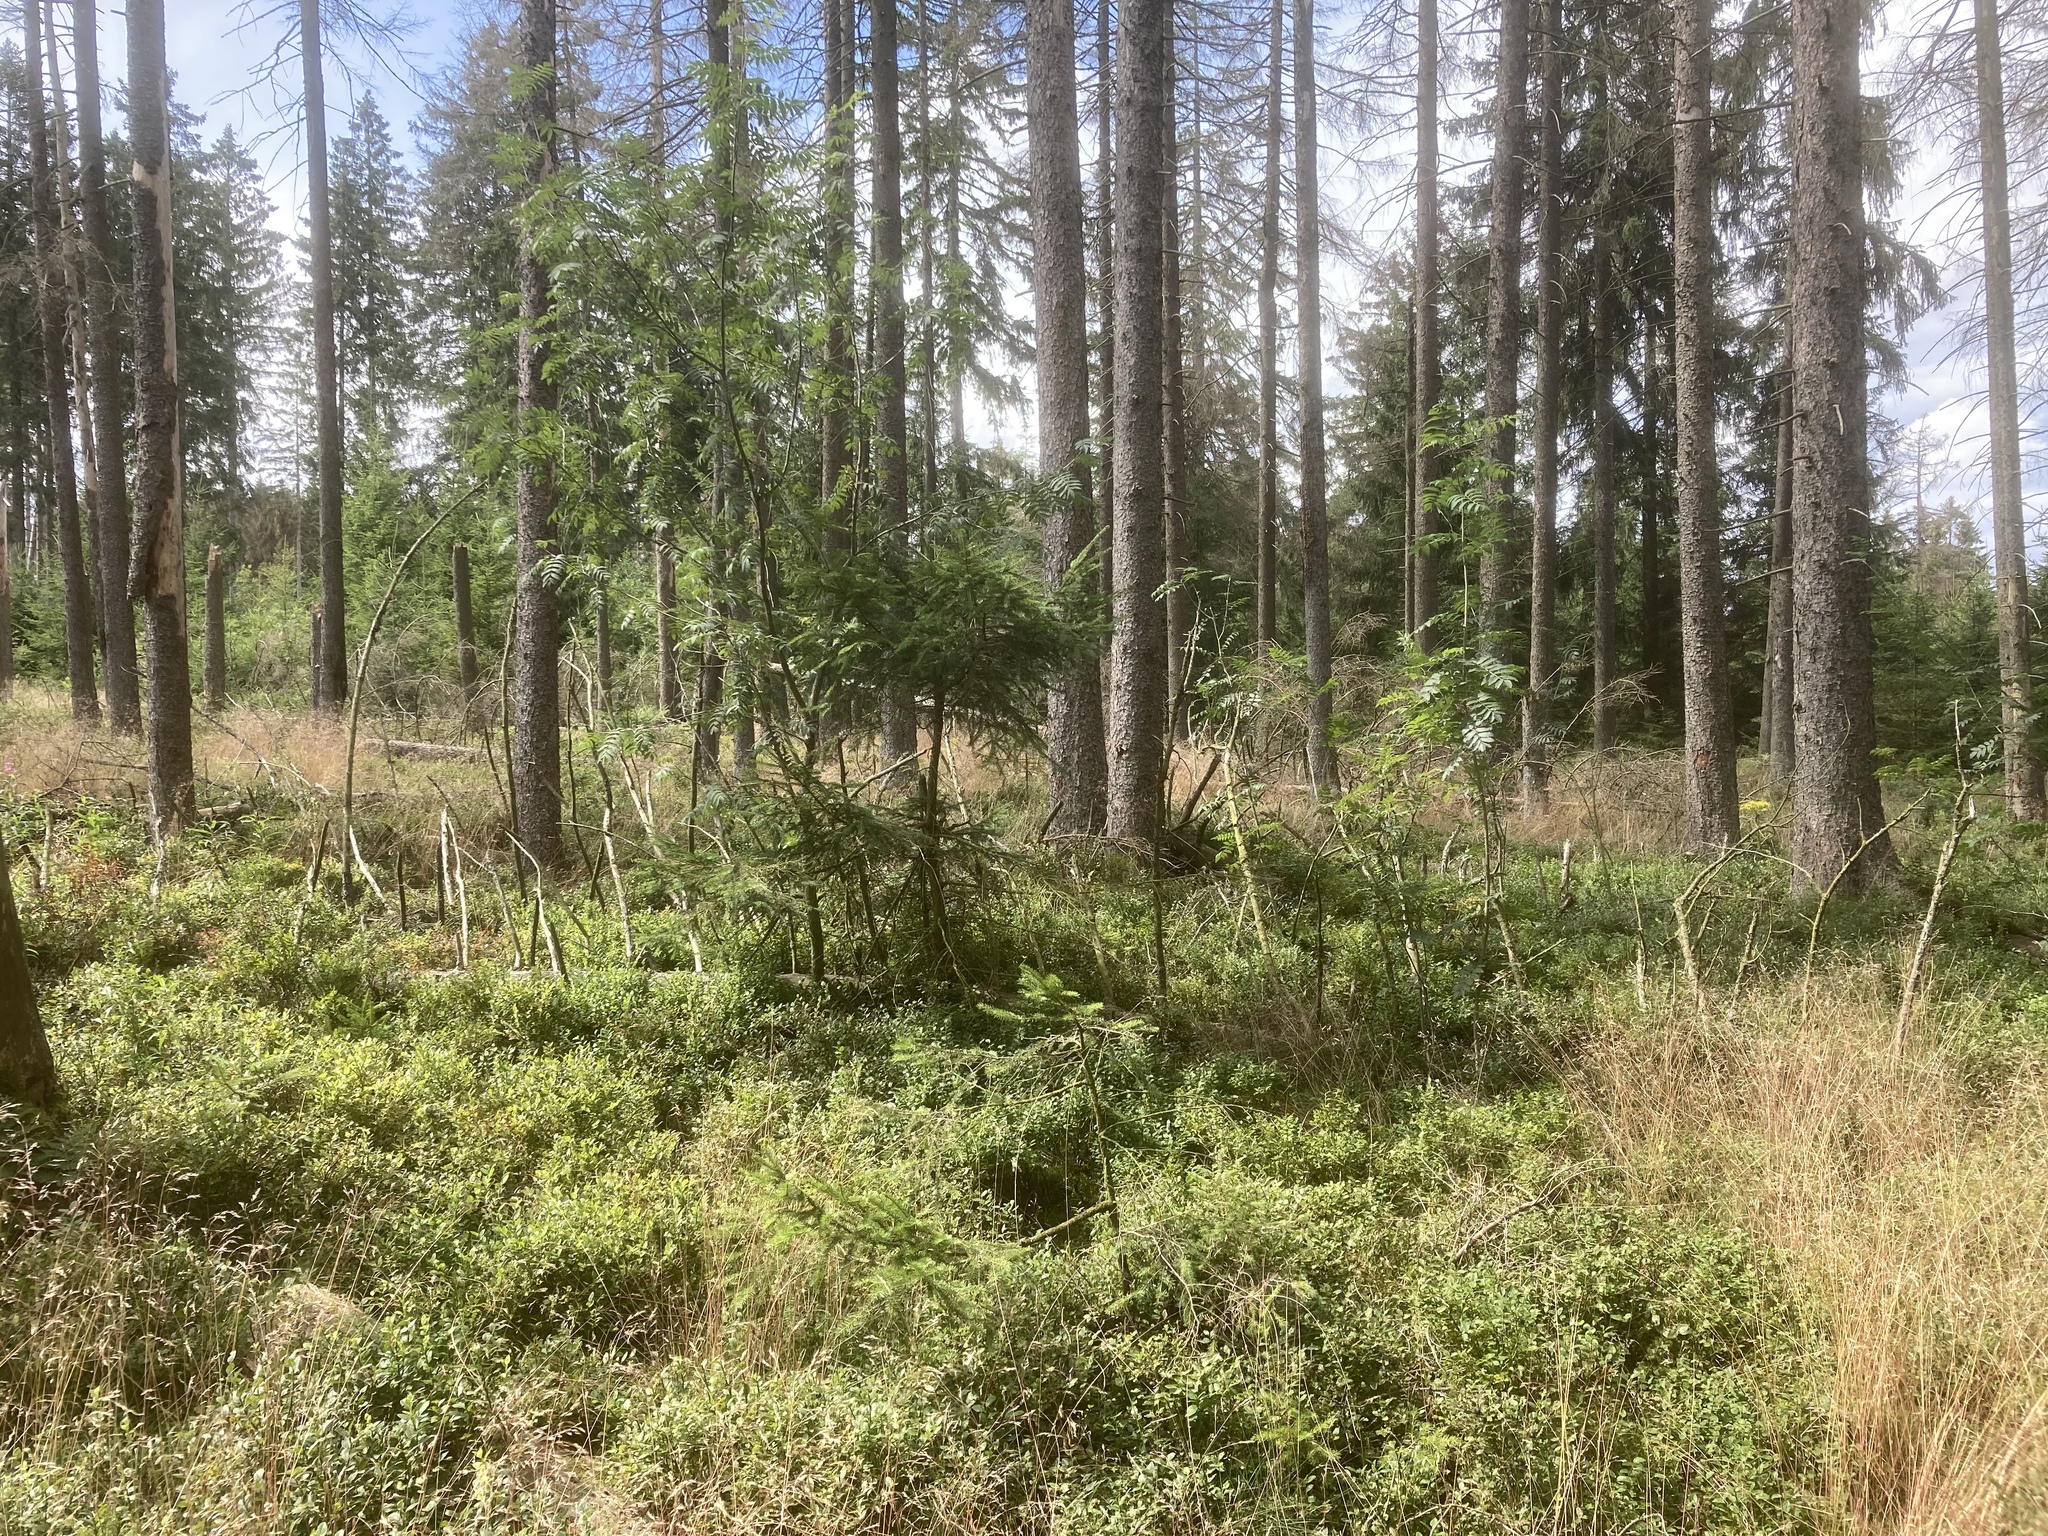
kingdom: Plantae
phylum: Tracheophyta
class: Pinopsida
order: Pinales
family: Pinaceae
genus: Picea
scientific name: Picea abies
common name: Norway spruce
